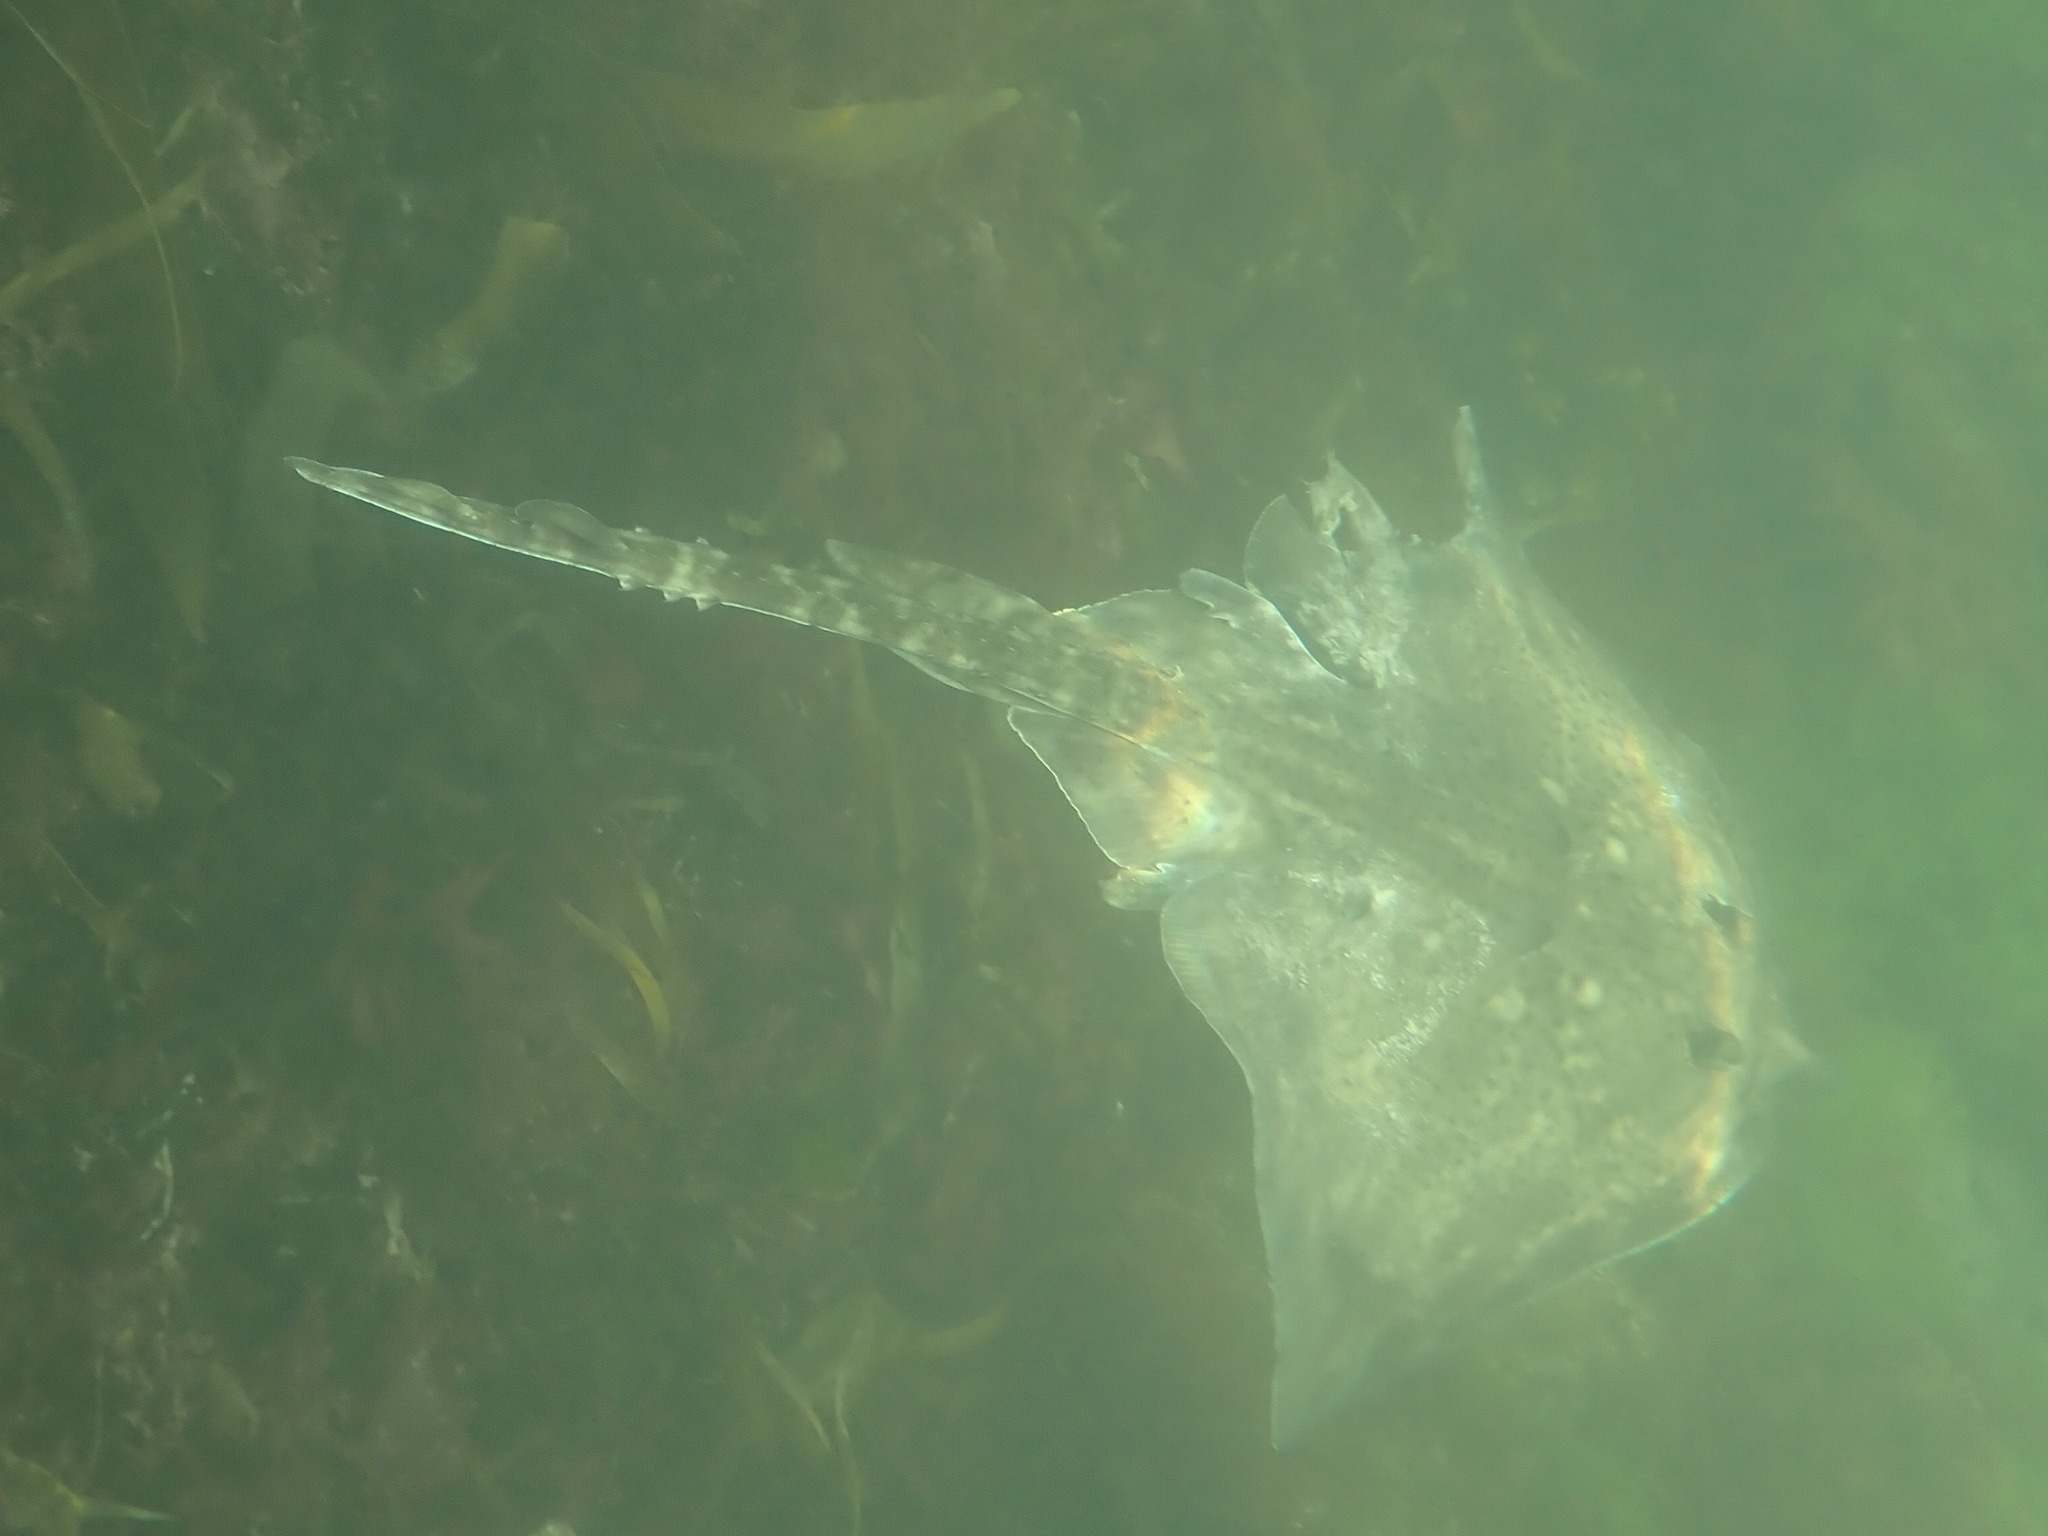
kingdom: Animalia
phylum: Chordata
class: Elasmobranchii
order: Rajiformes
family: Rajidae
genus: Raja
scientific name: Raja clavata
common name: Thornback ray
